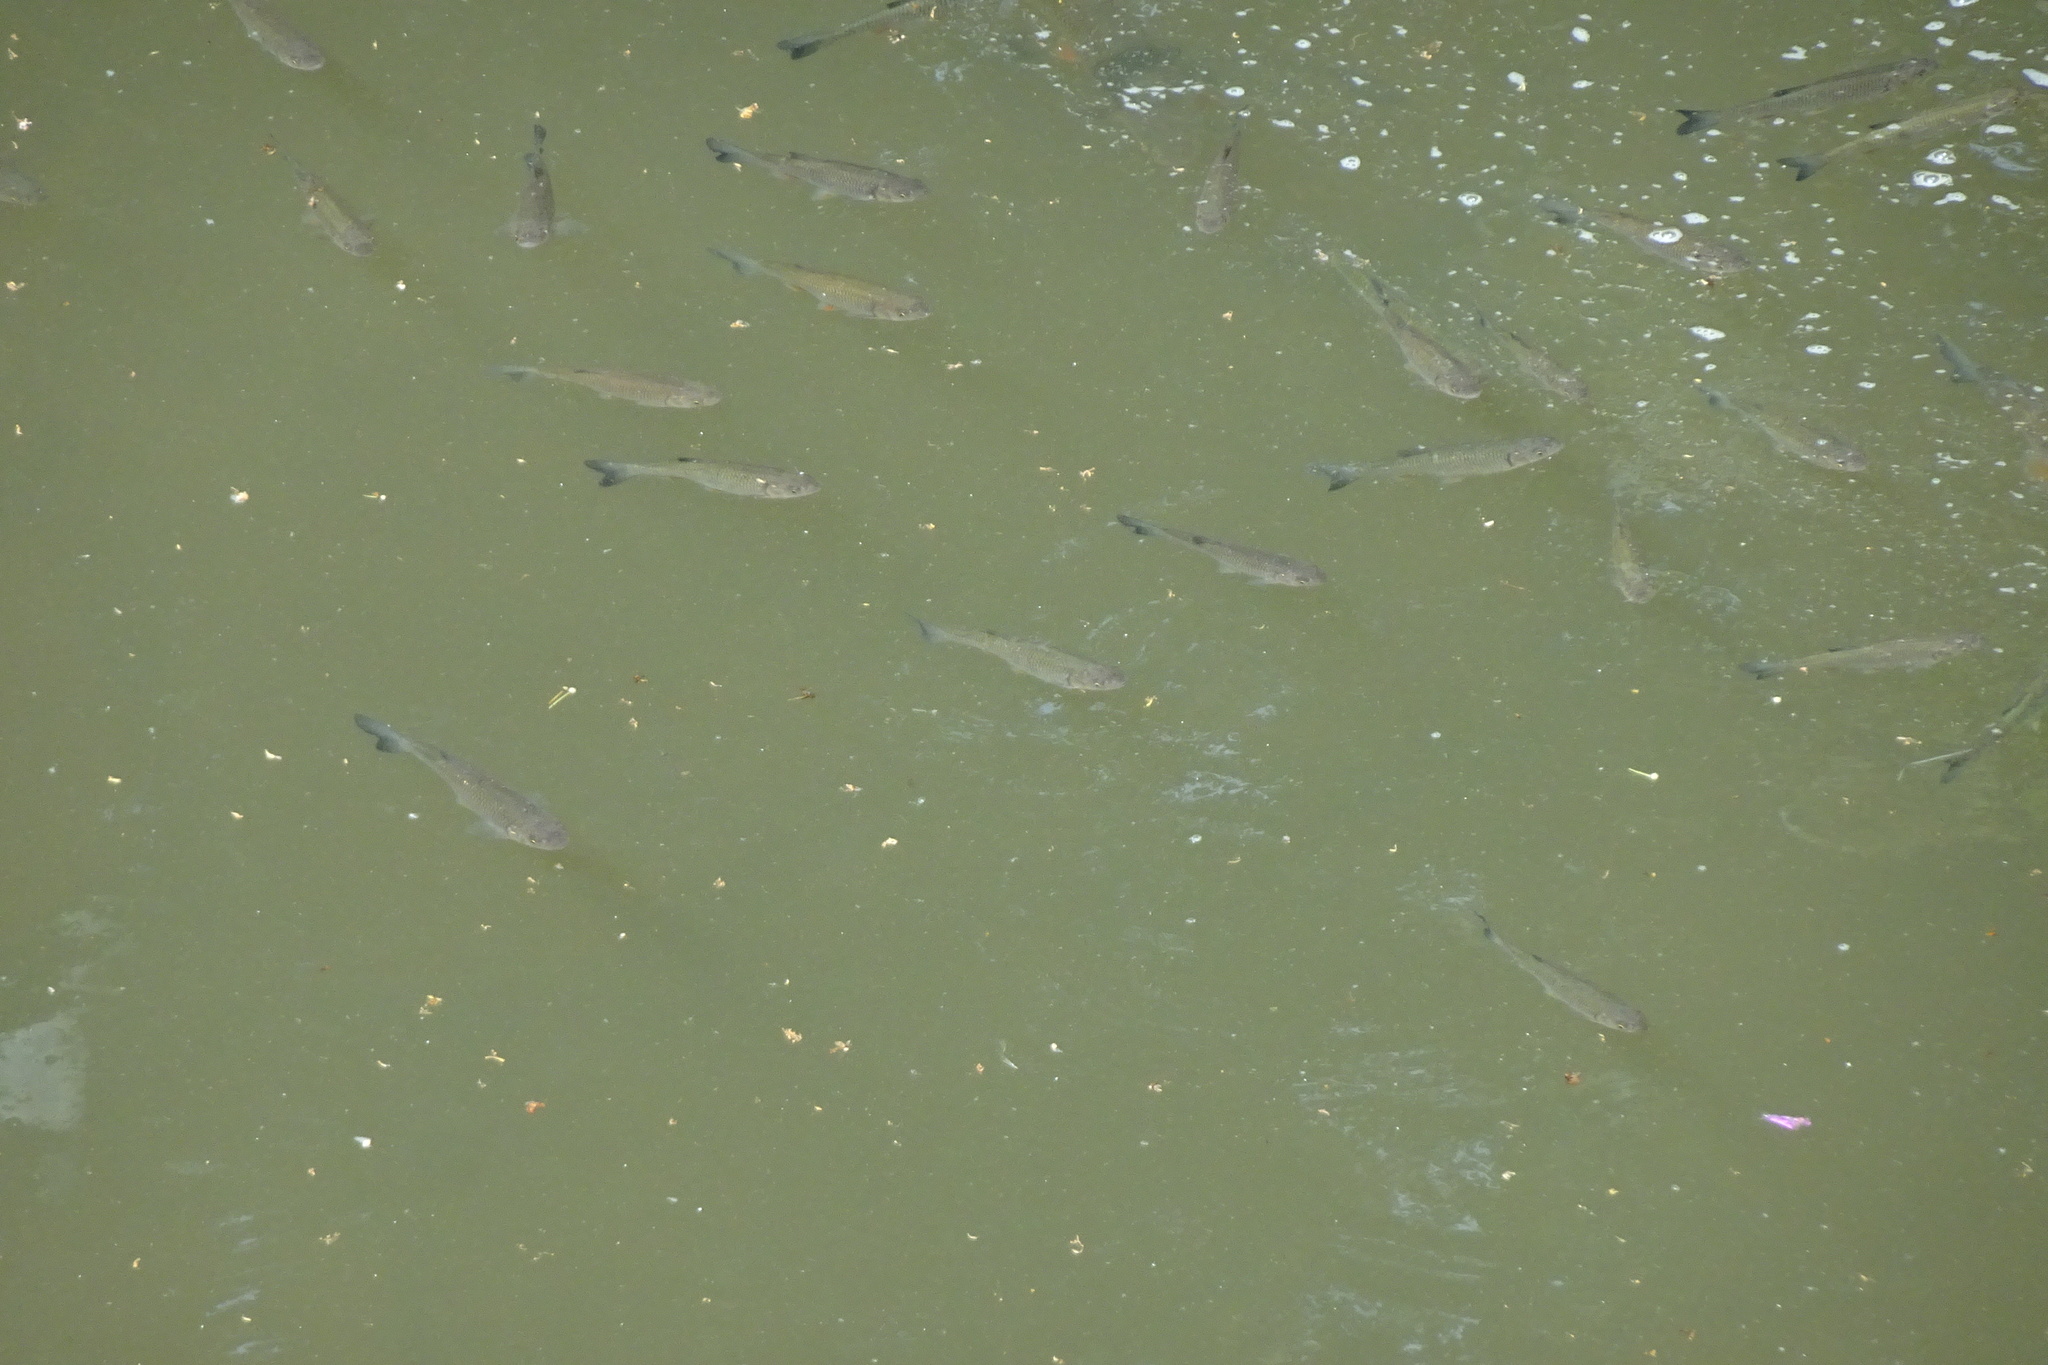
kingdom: Animalia
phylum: Chordata
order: Cypriniformes
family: Cyprinidae
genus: Squalius
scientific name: Squalius cephalus
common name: Chub
